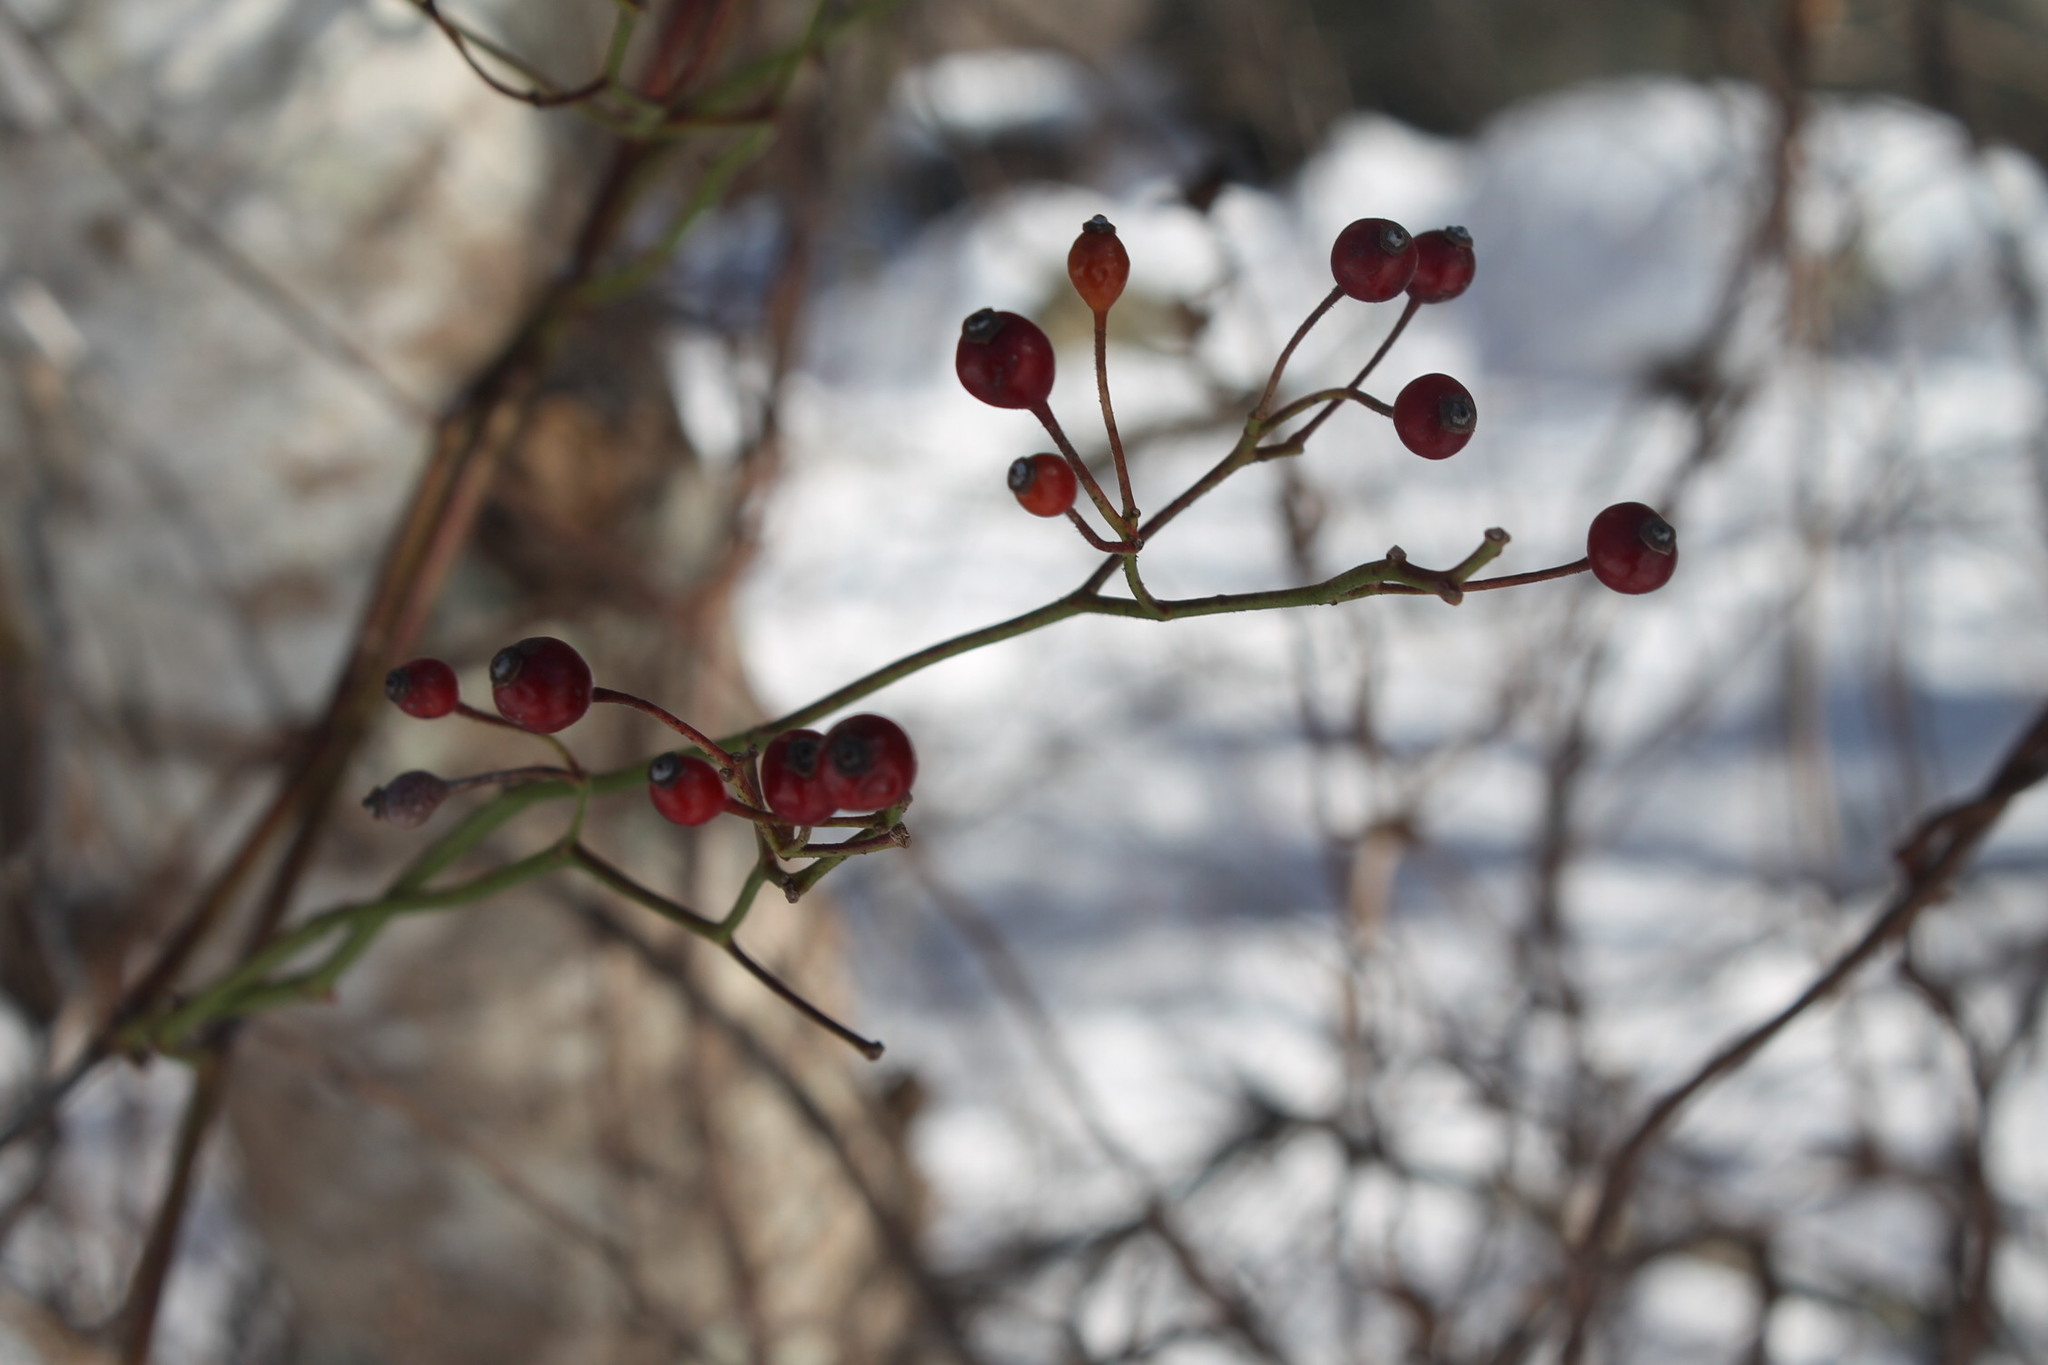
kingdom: Plantae
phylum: Tracheophyta
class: Magnoliopsida
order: Rosales
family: Rosaceae
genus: Rosa
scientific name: Rosa multiflora
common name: Multiflora rose
